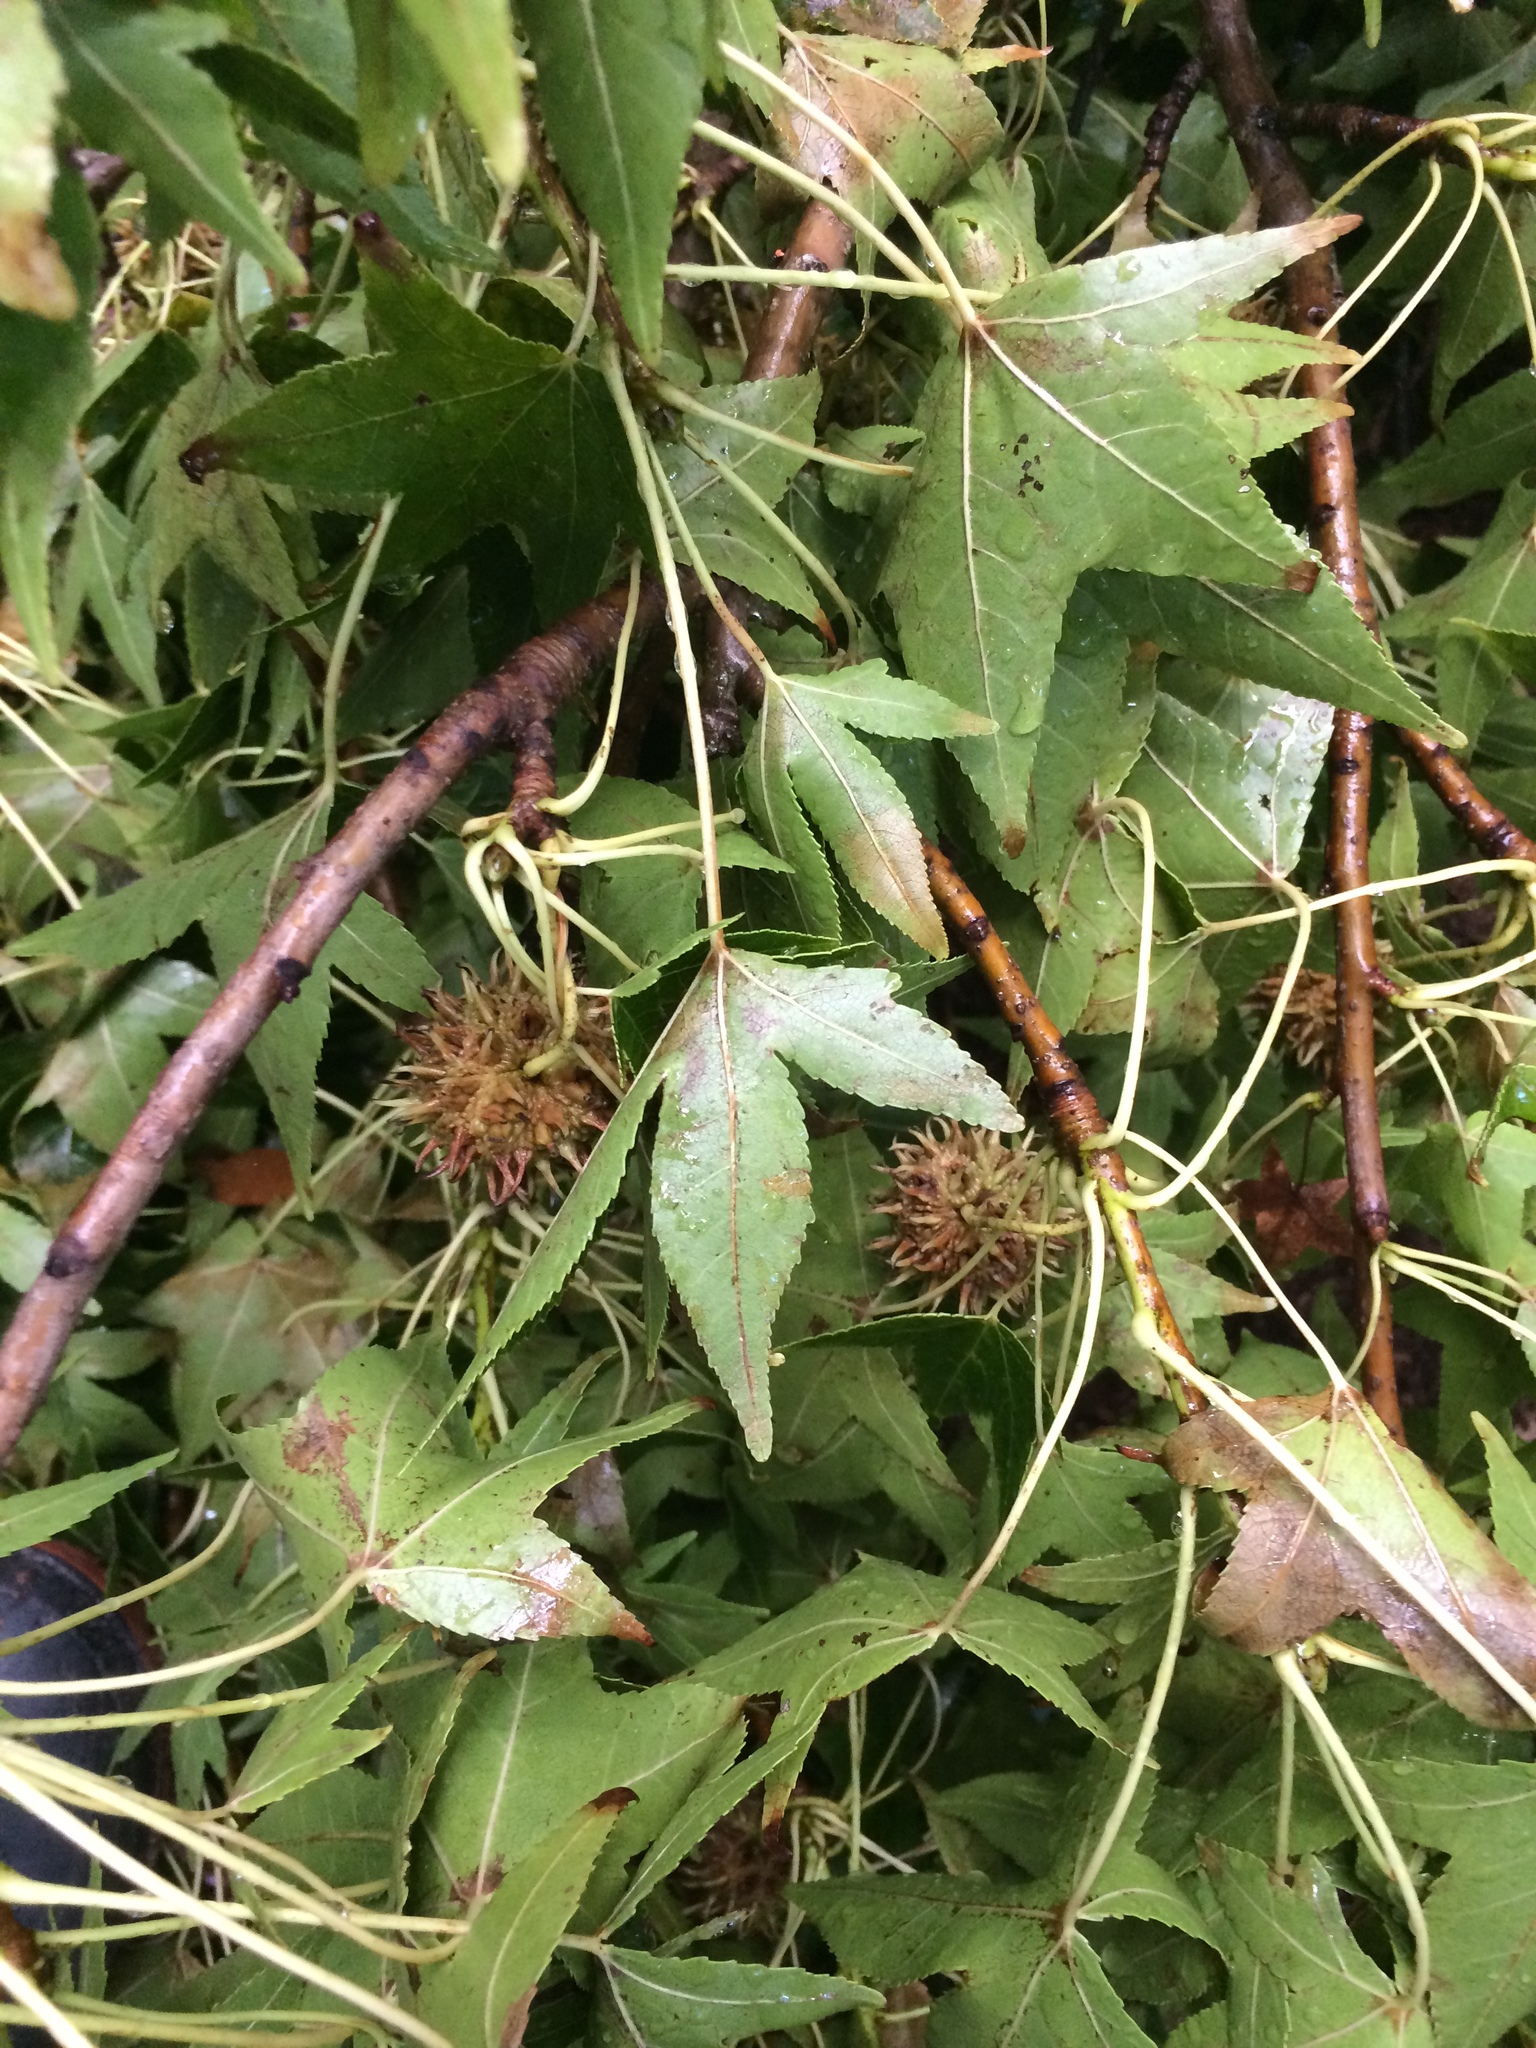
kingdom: Plantae
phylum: Tracheophyta
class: Magnoliopsida
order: Saxifragales
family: Altingiaceae
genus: Liquidambar
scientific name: Liquidambar styraciflua
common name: Sweet gum
